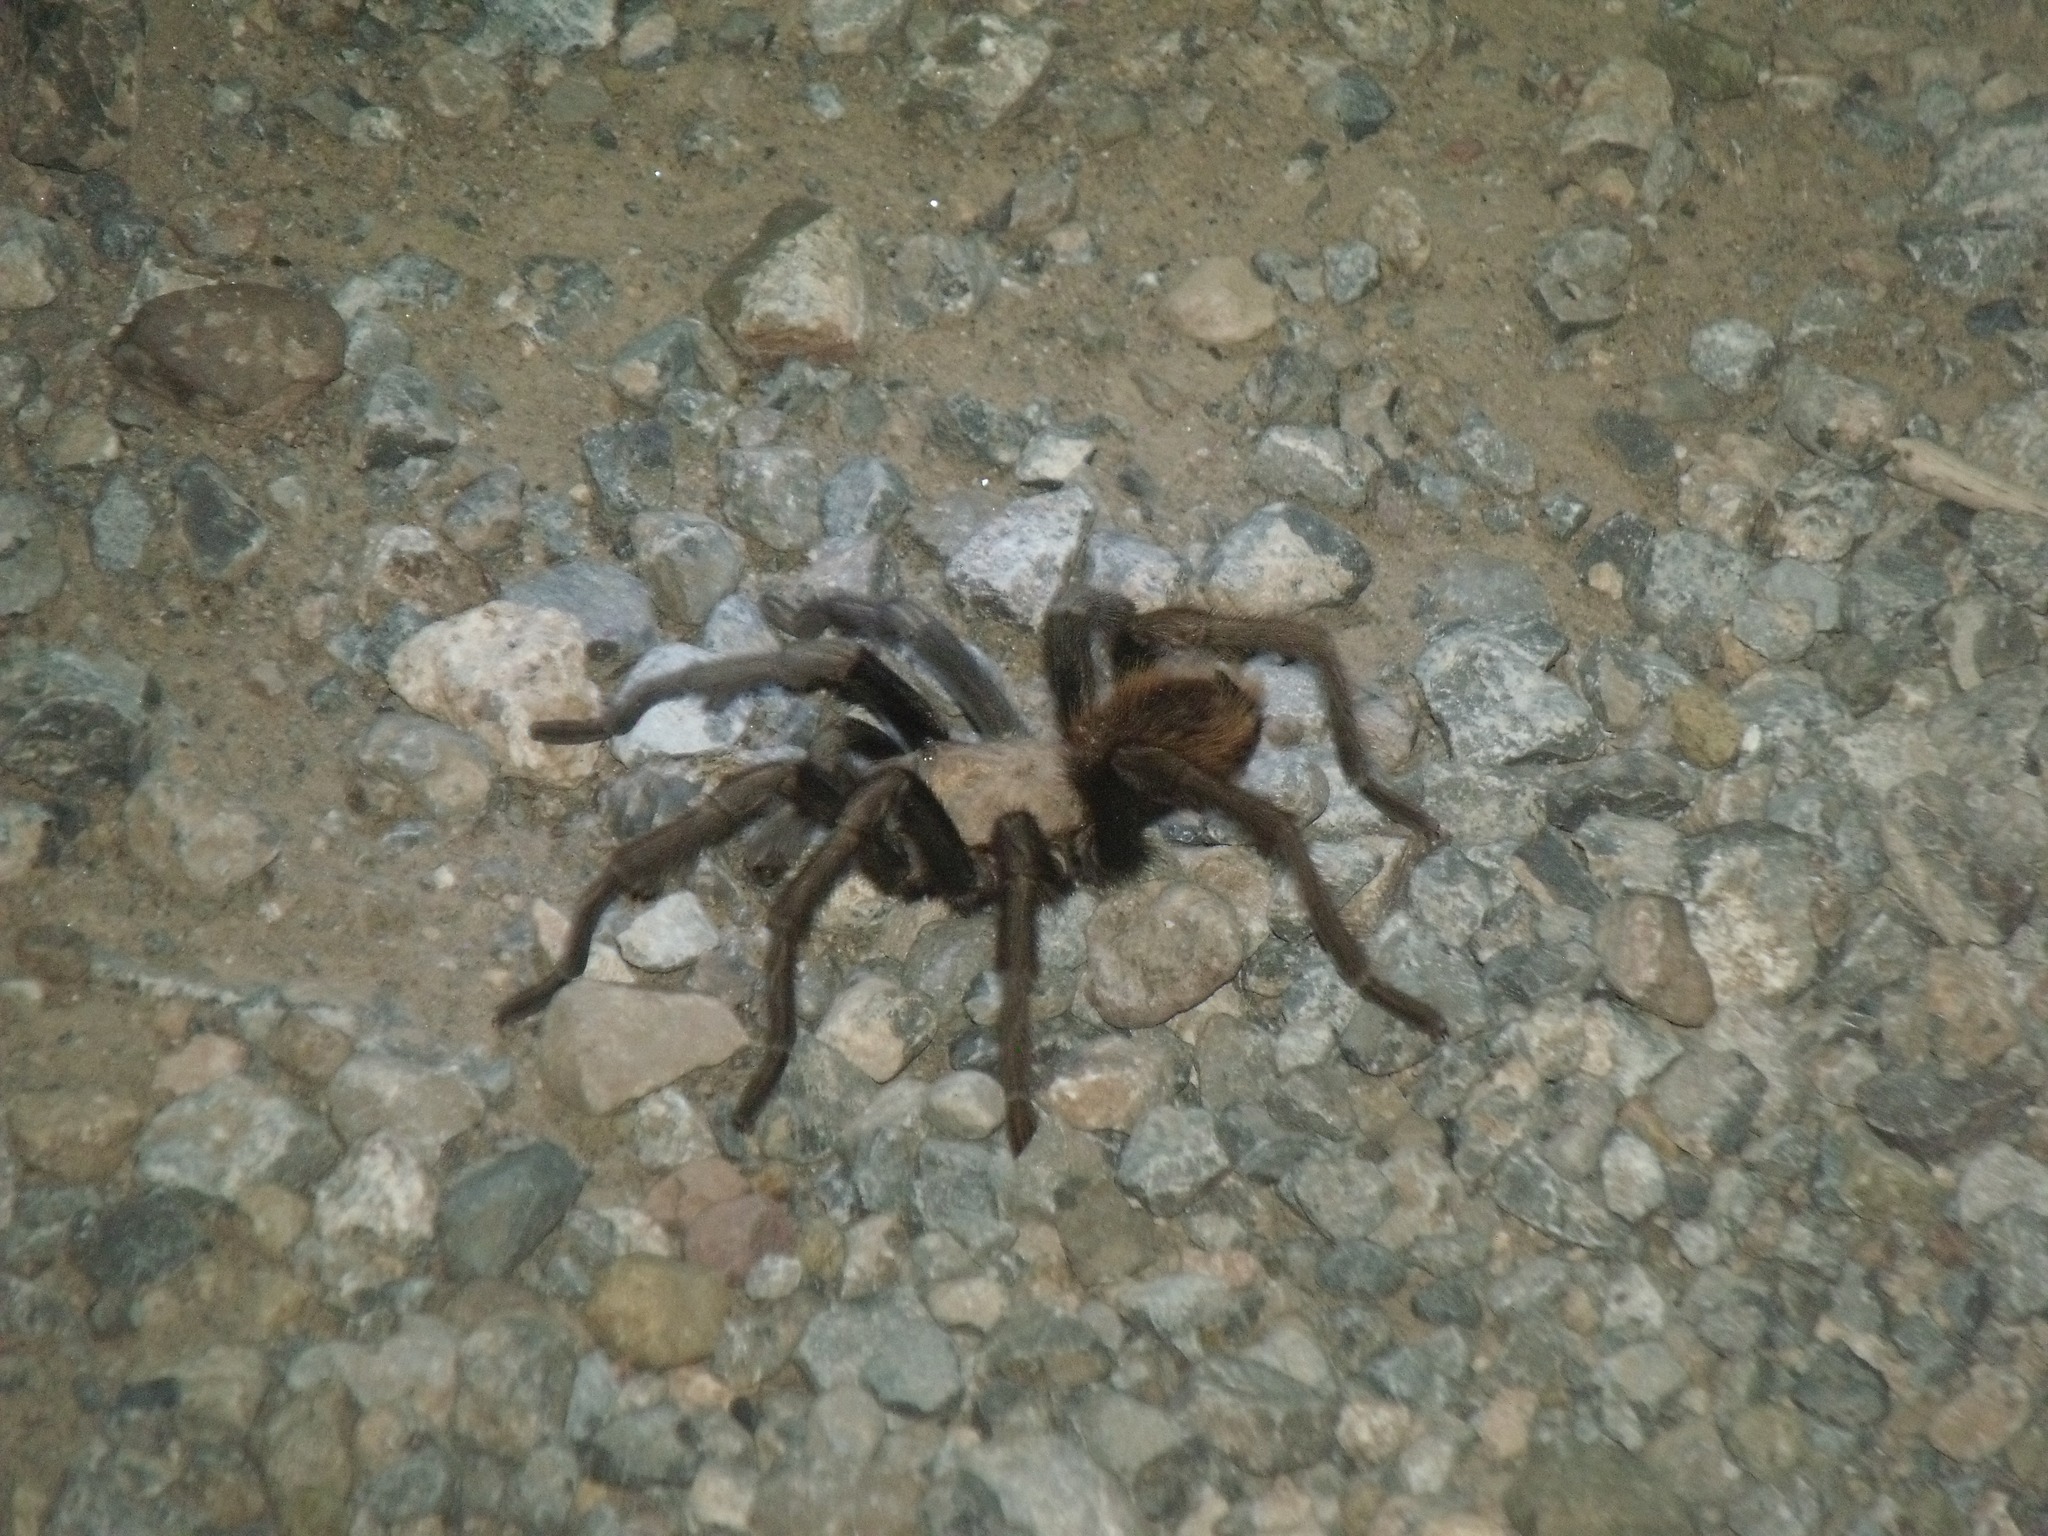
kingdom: Animalia
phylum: Arthropoda
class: Arachnida
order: Araneae
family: Theraphosidae
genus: Aphonopelma
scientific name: Aphonopelma chalcodes
